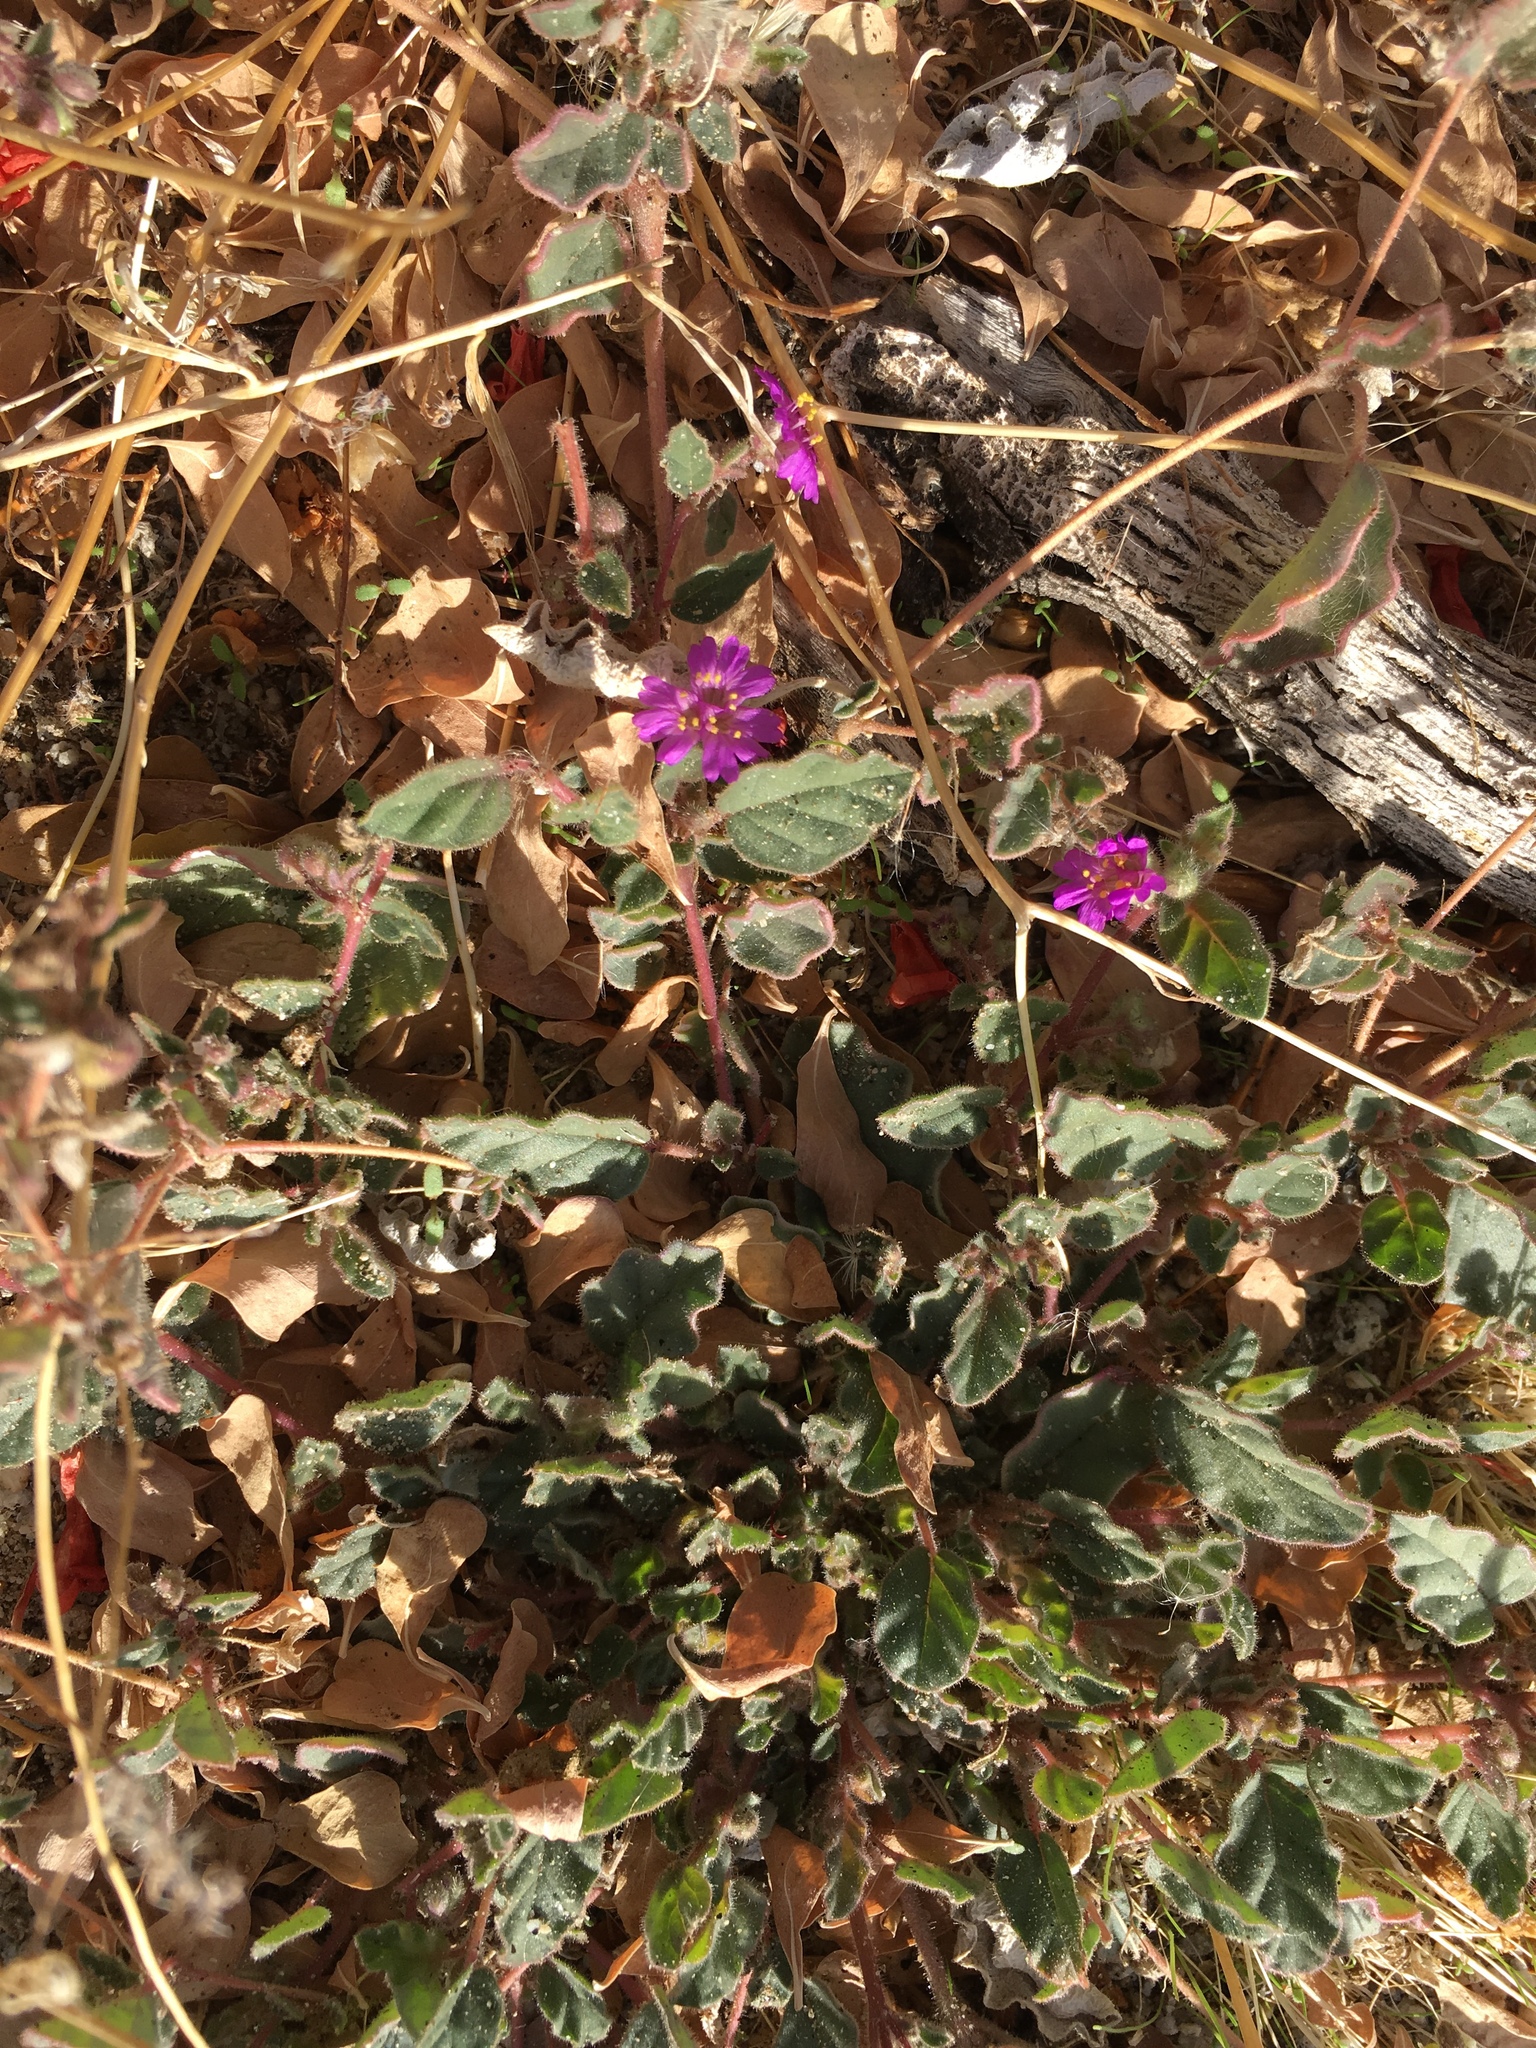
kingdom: Plantae
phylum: Tracheophyta
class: Magnoliopsida
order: Caryophyllales
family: Nyctaginaceae
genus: Allionia
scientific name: Allionia incarnata
